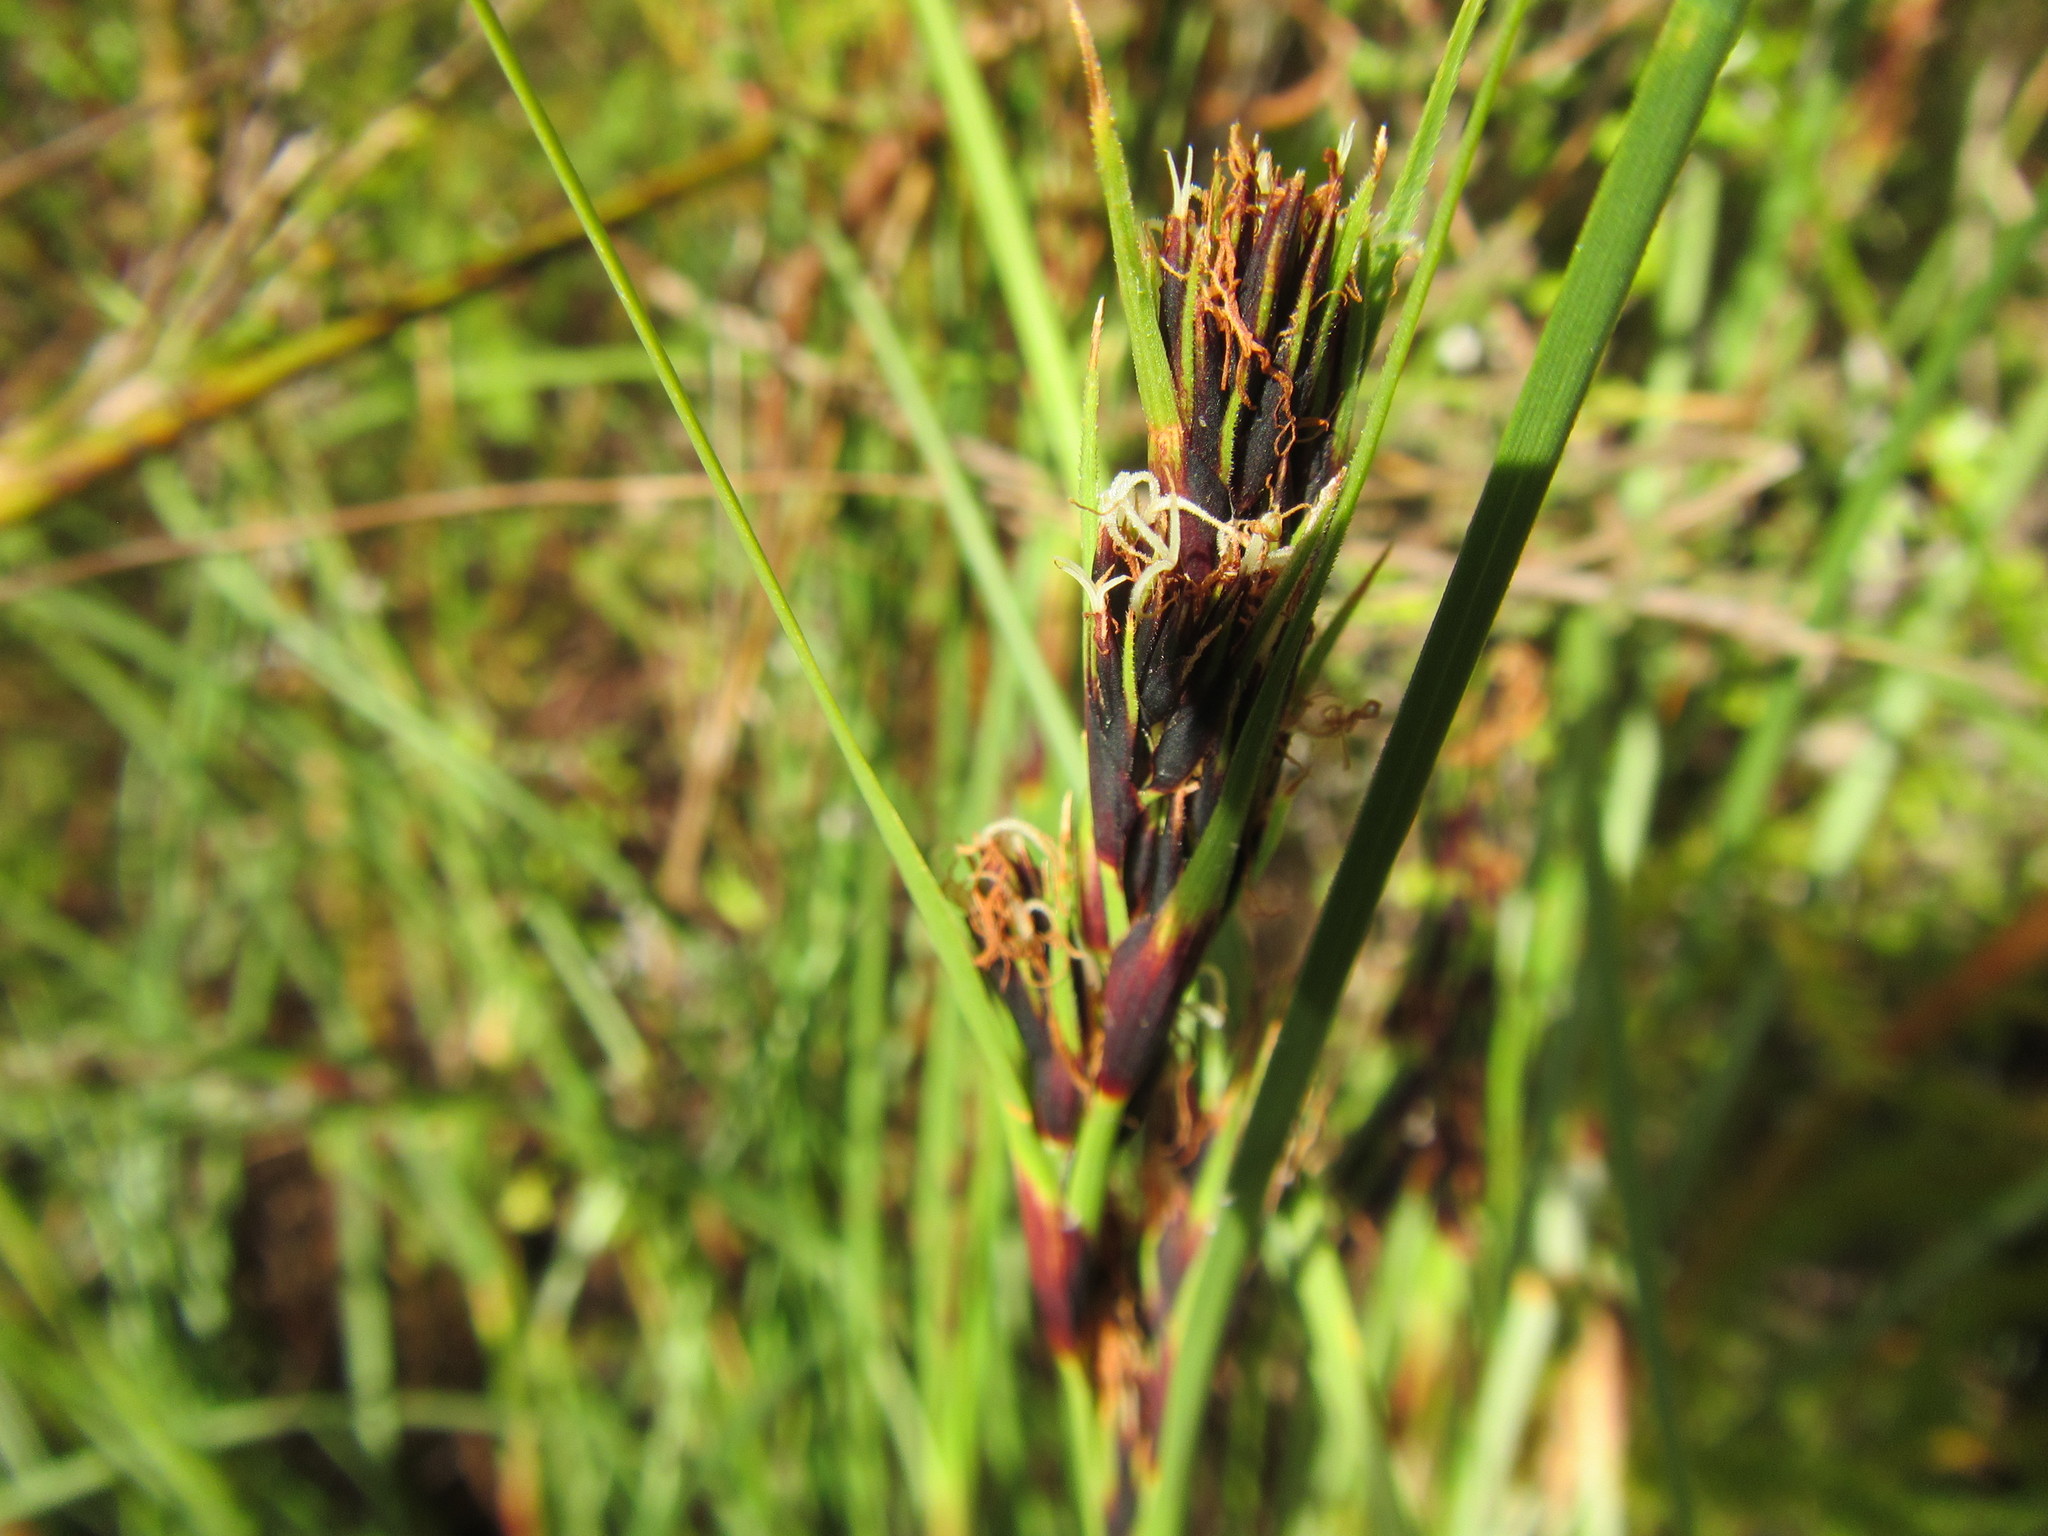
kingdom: Plantae
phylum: Tracheophyta
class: Liliopsida
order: Poales
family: Cyperaceae
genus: Cyathocoma
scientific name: Cyathocoma hexandra
